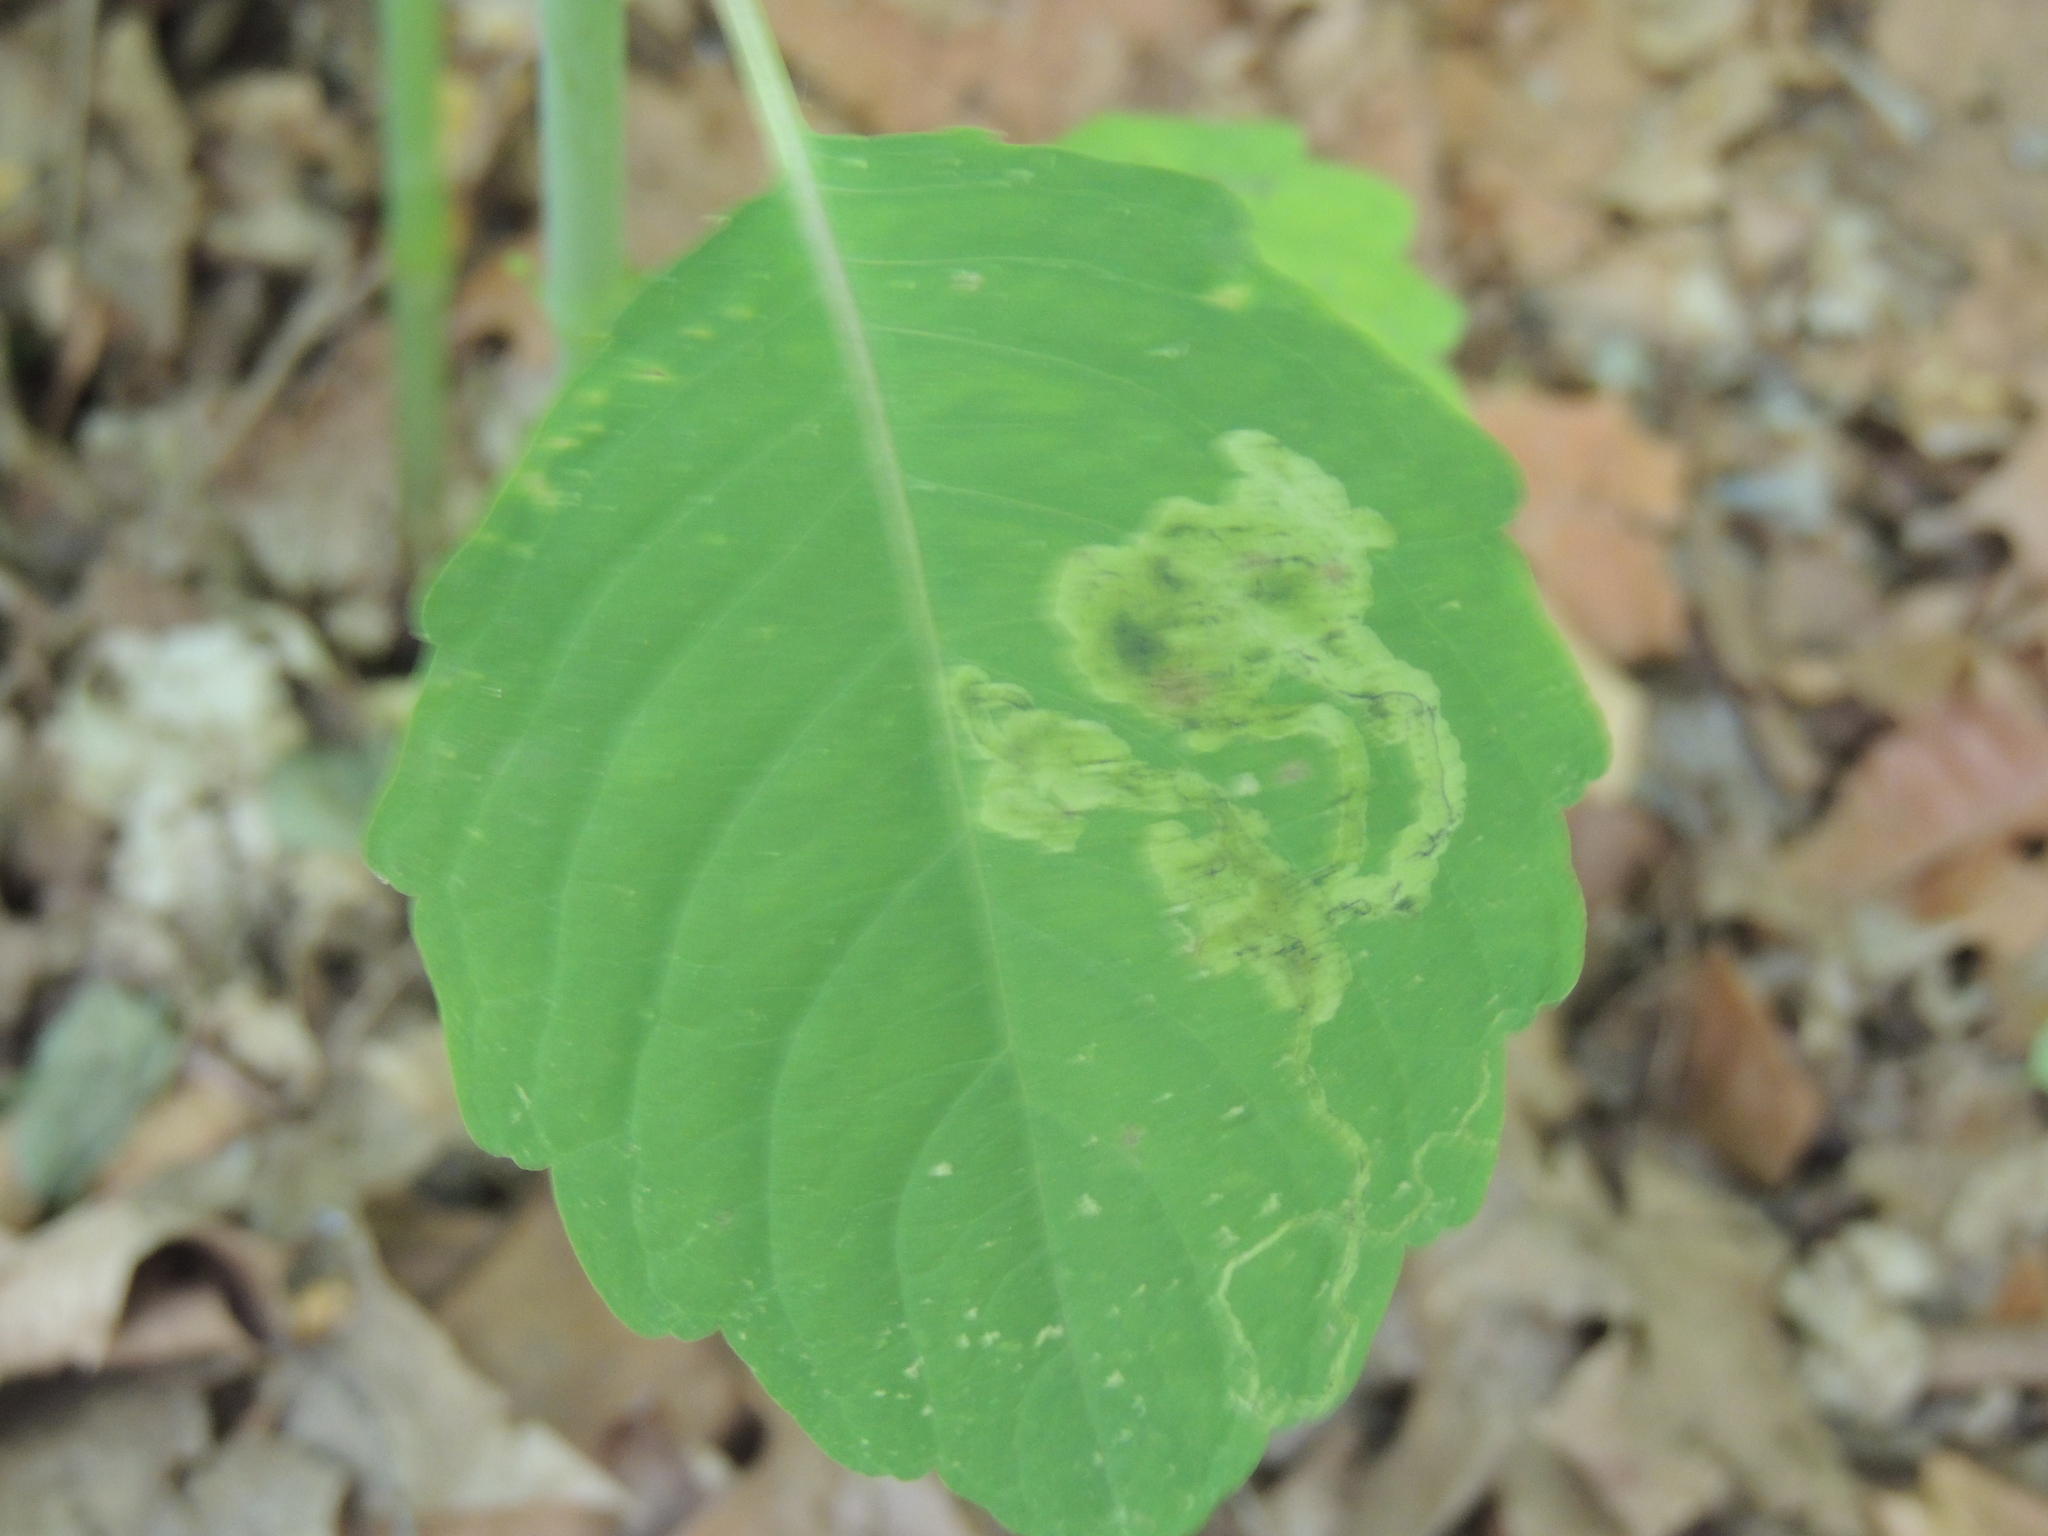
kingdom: Animalia
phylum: Arthropoda
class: Insecta
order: Diptera
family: Agromyzidae
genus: Phytoliriomyza
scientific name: Phytoliriomyza melampyga
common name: Jewelweed leaf-miner fly
